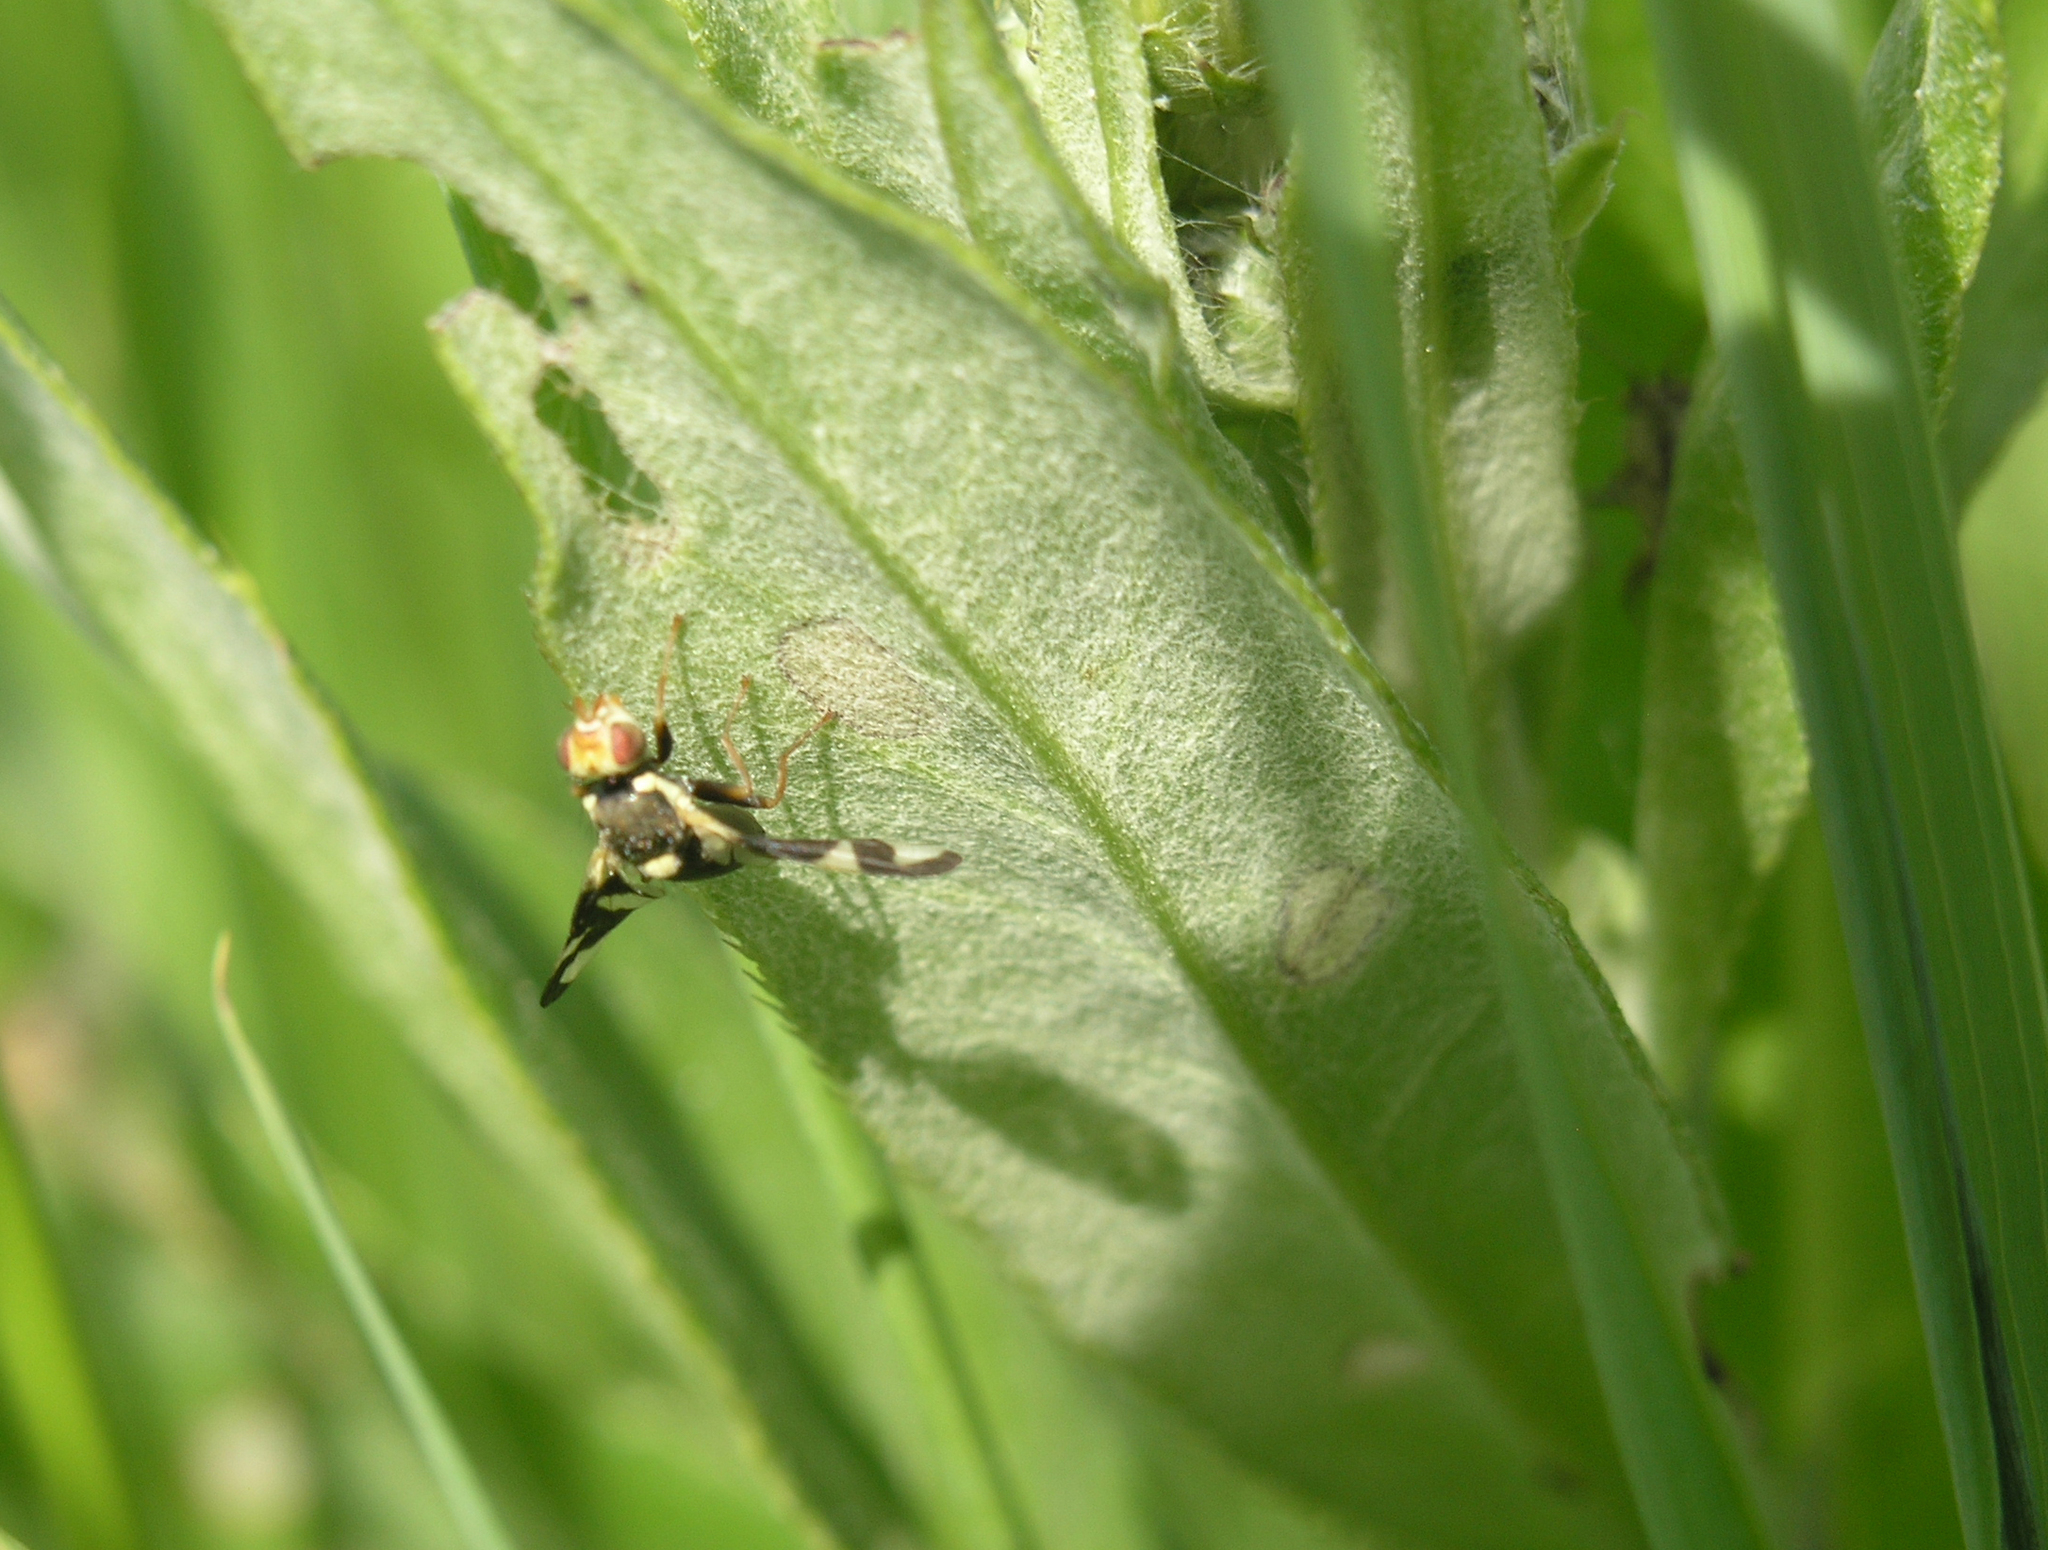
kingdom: Animalia
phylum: Arthropoda
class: Insecta
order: Diptera
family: Tephritidae
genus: Urophora
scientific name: Urophora cardui
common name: Fruit fly
